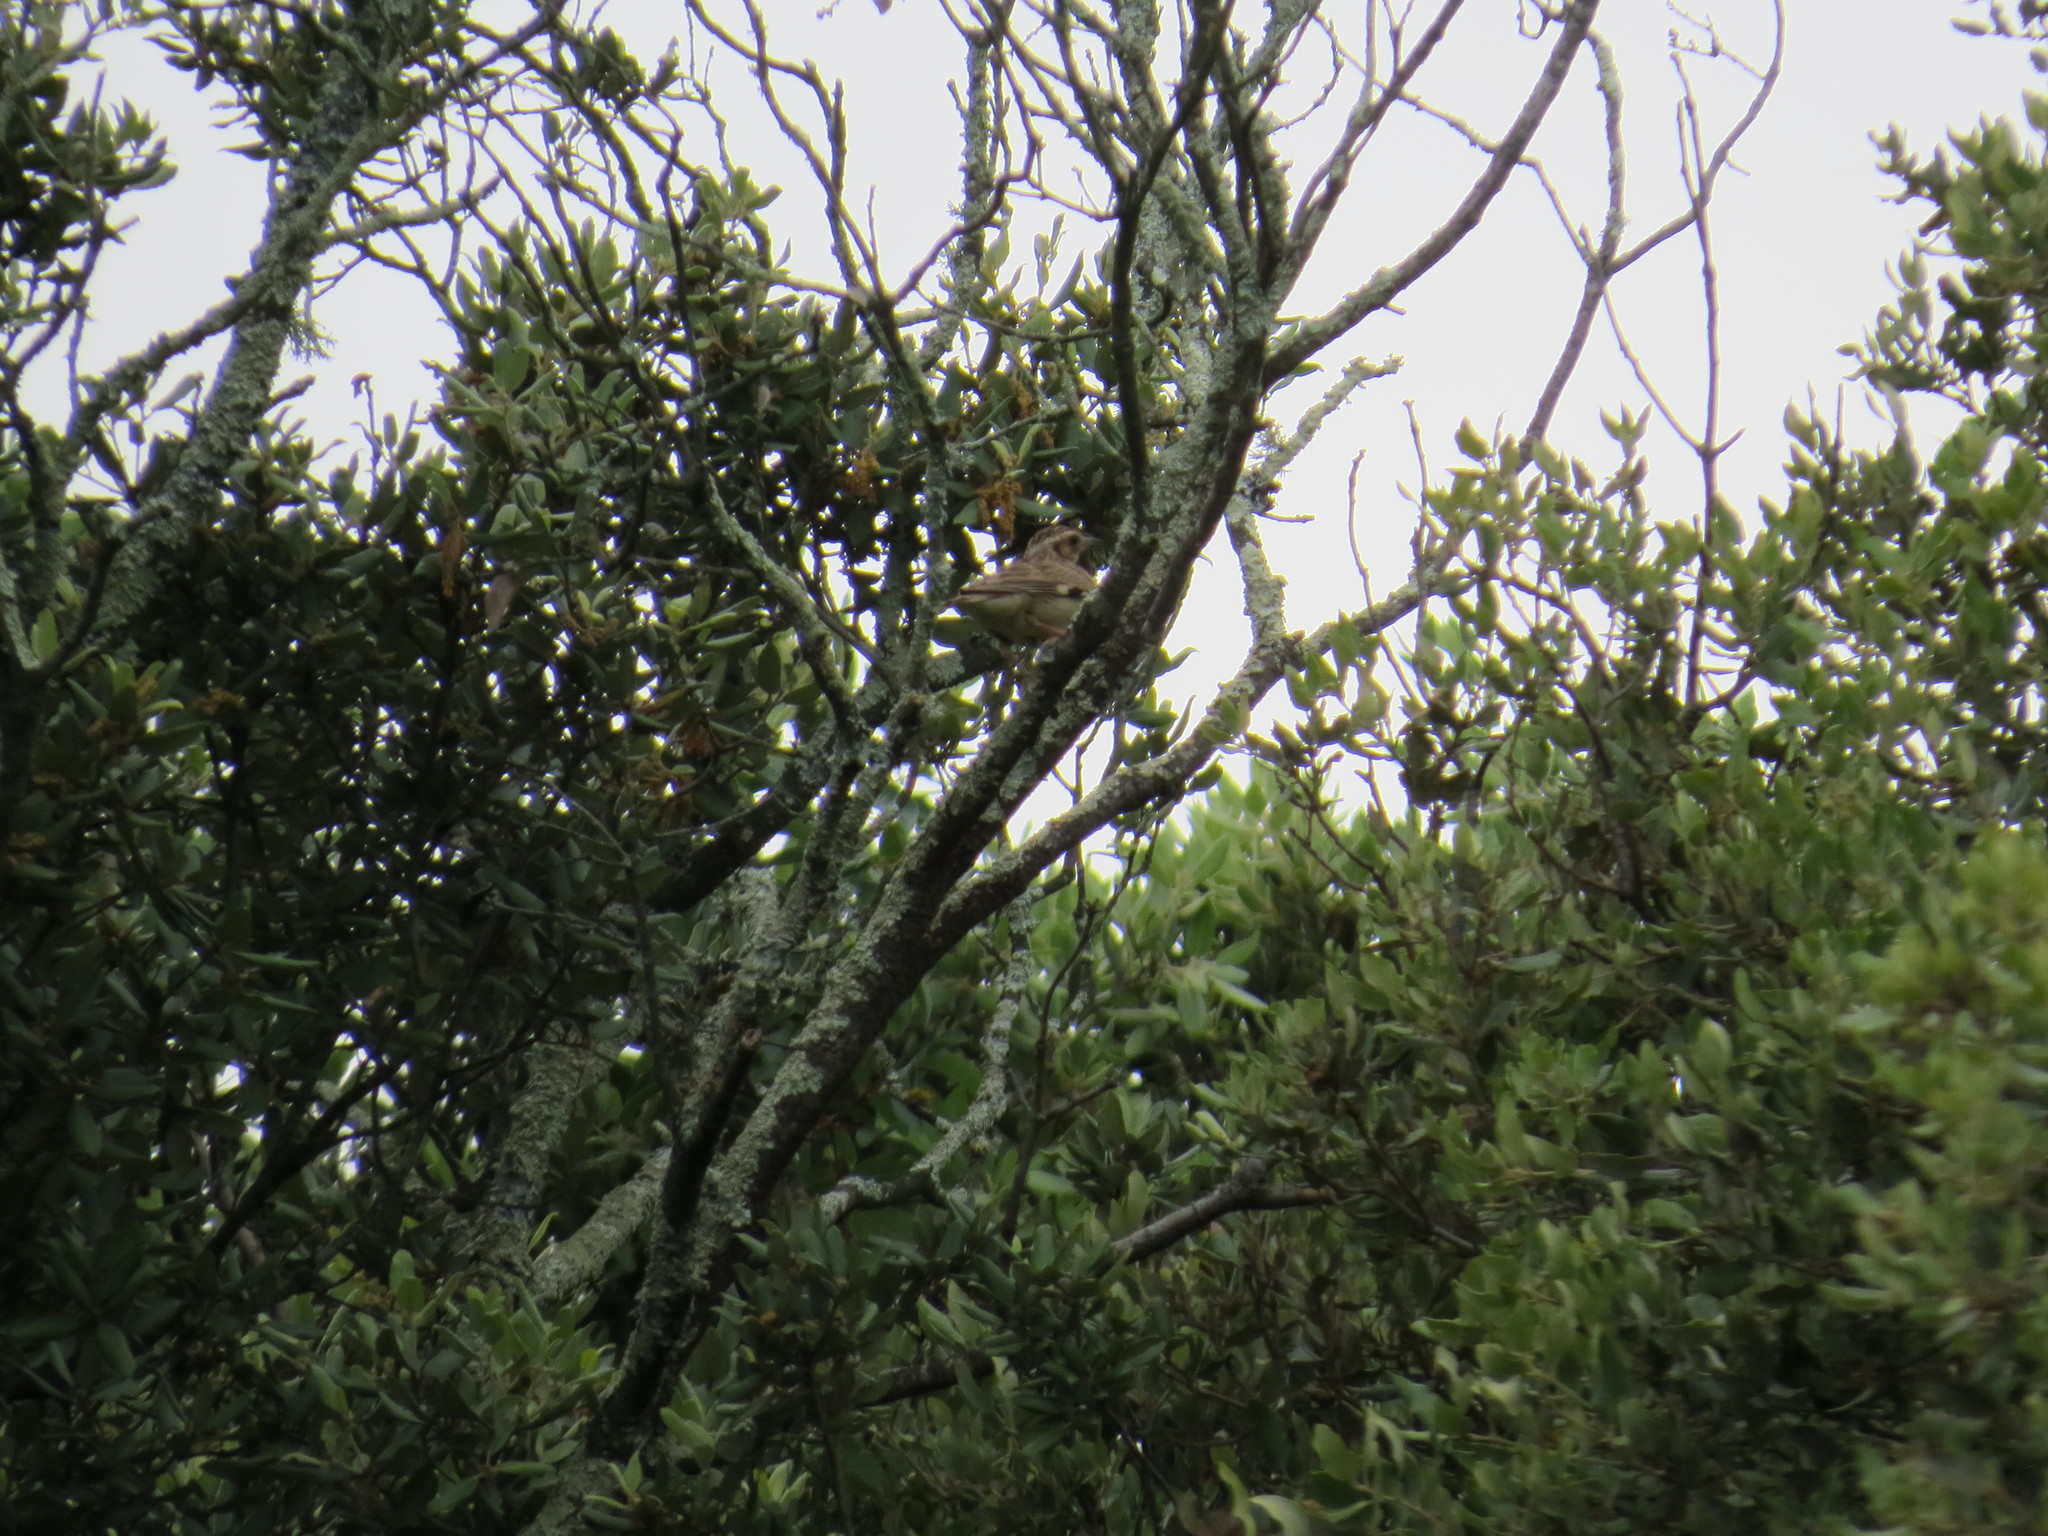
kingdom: Animalia
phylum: Chordata
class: Aves
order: Passeriformes
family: Alaudidae
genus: Lullula
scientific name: Lullula arborea
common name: Woodlark
